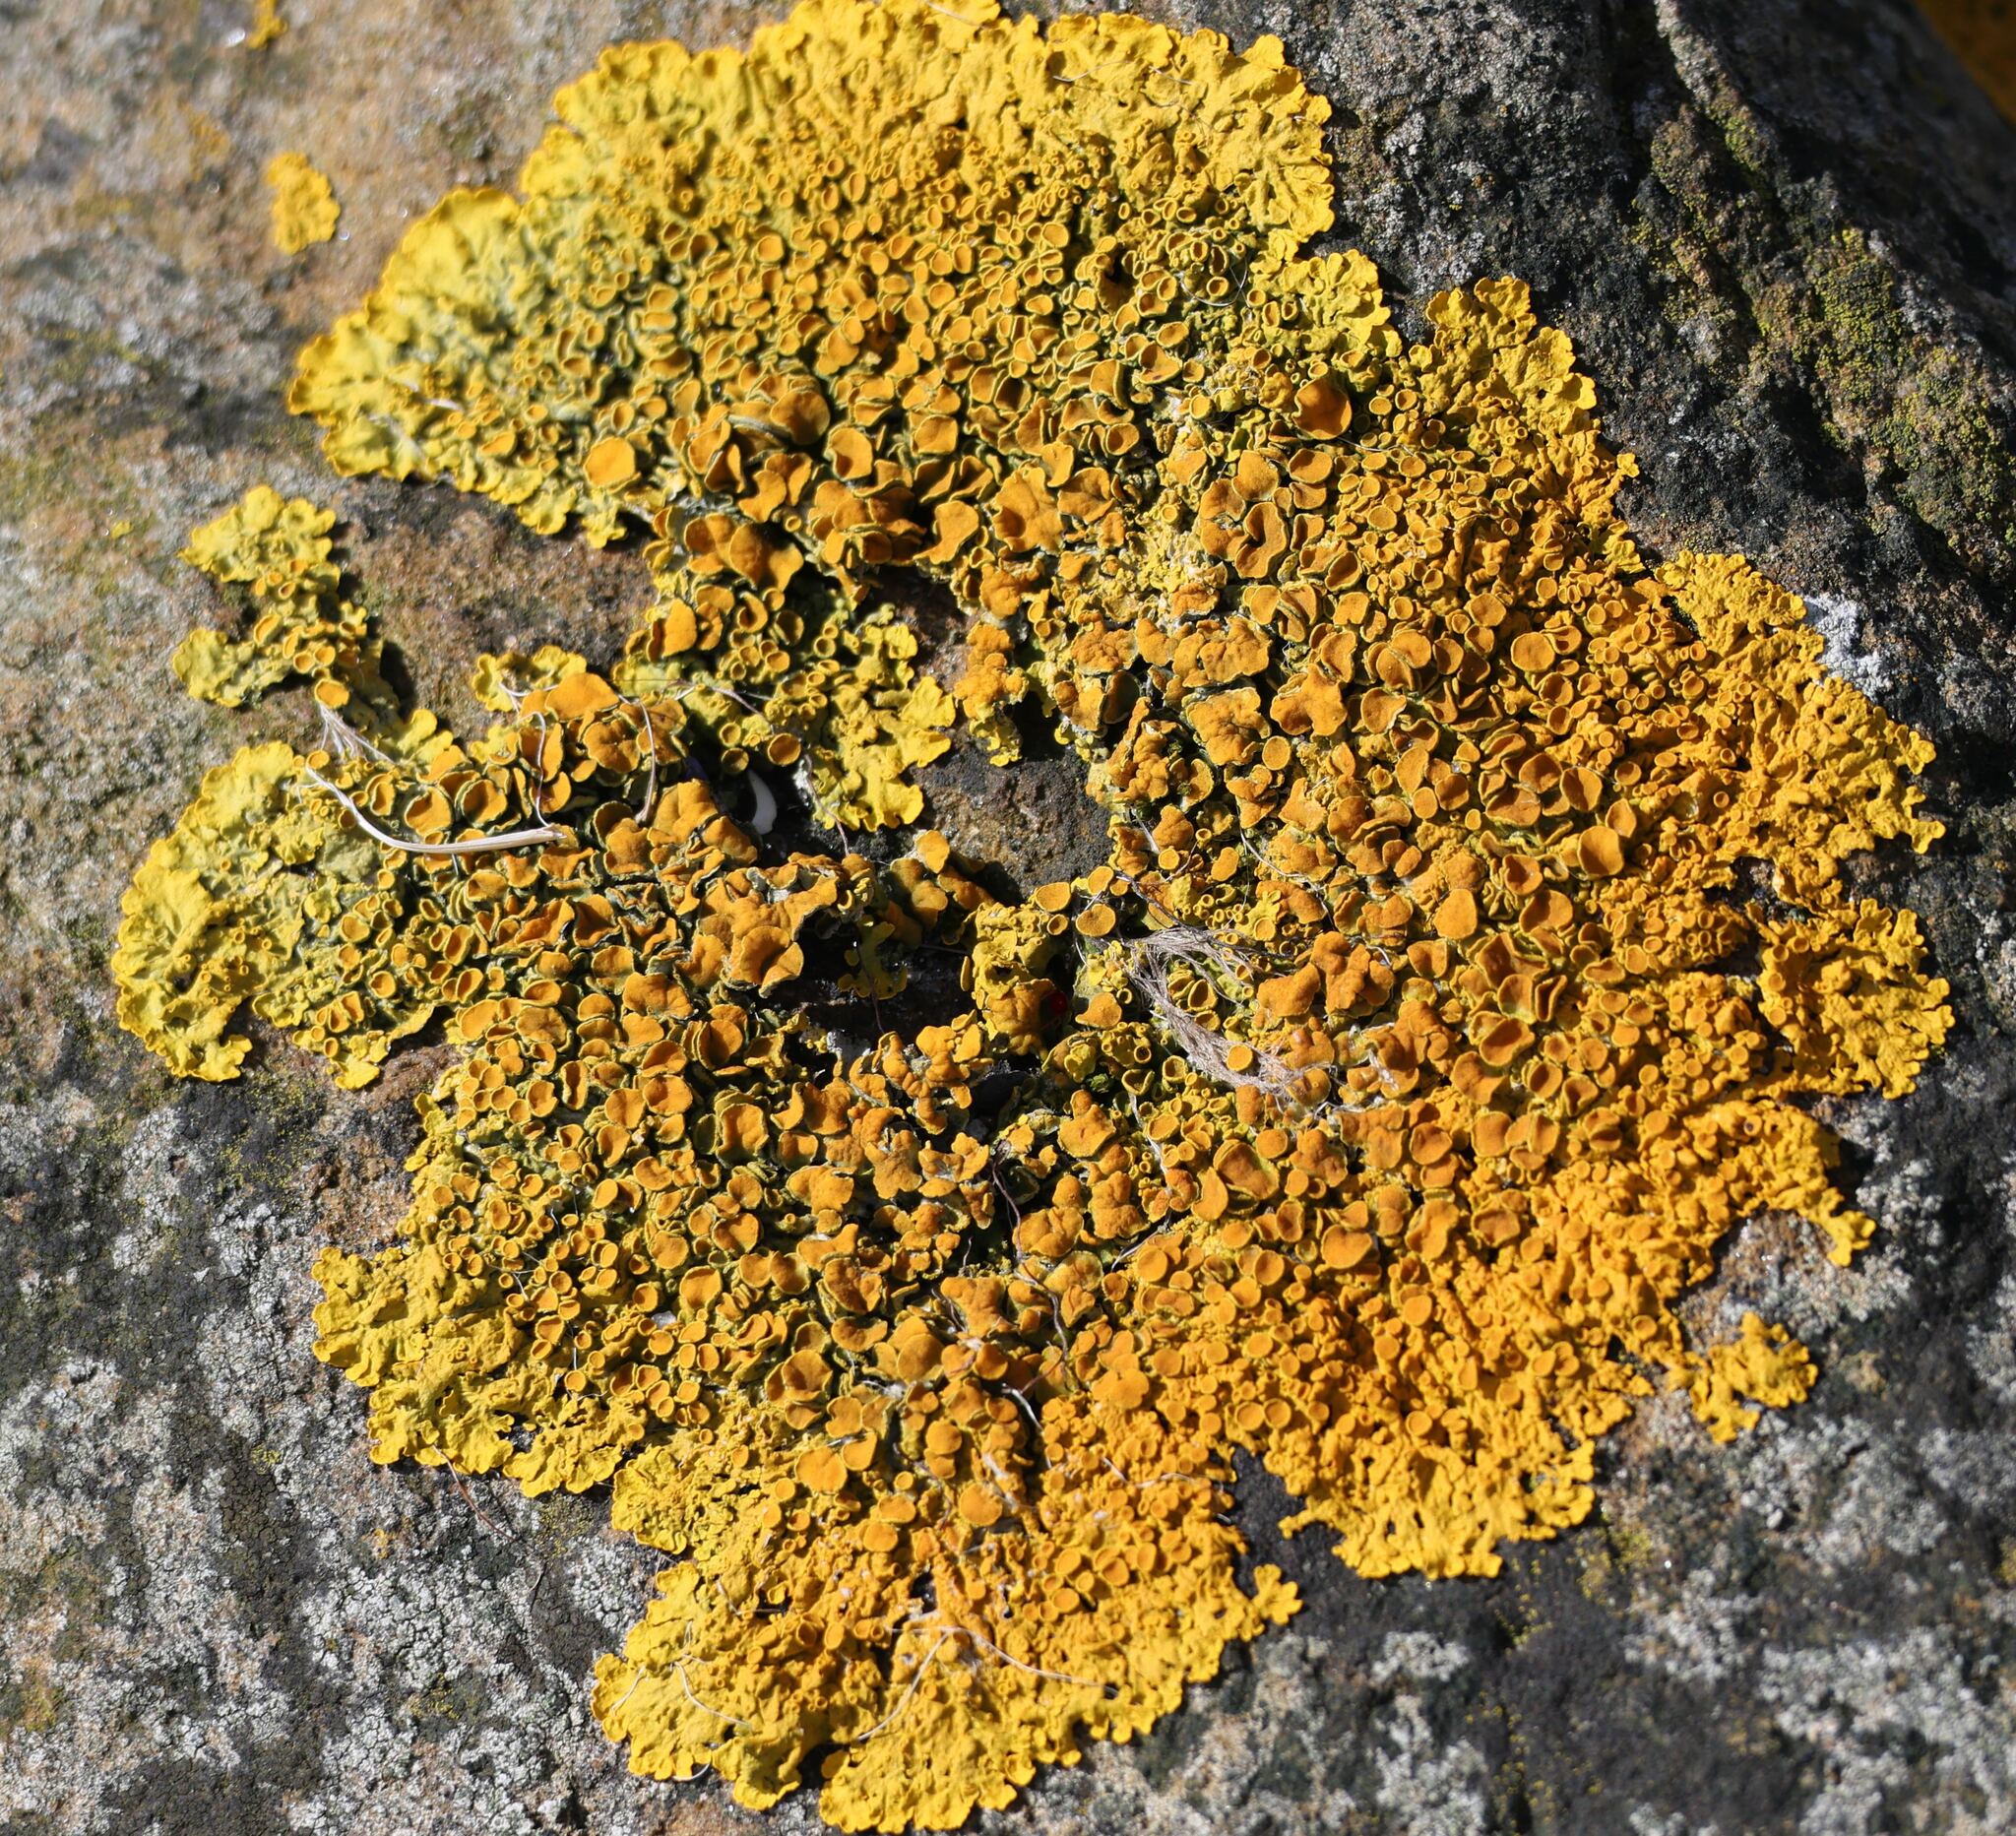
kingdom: Fungi
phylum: Ascomycota
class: Lecanoromycetes
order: Teloschistales
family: Teloschistaceae
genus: Xanthoria
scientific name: Xanthoria parietina
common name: Common orange lichen
